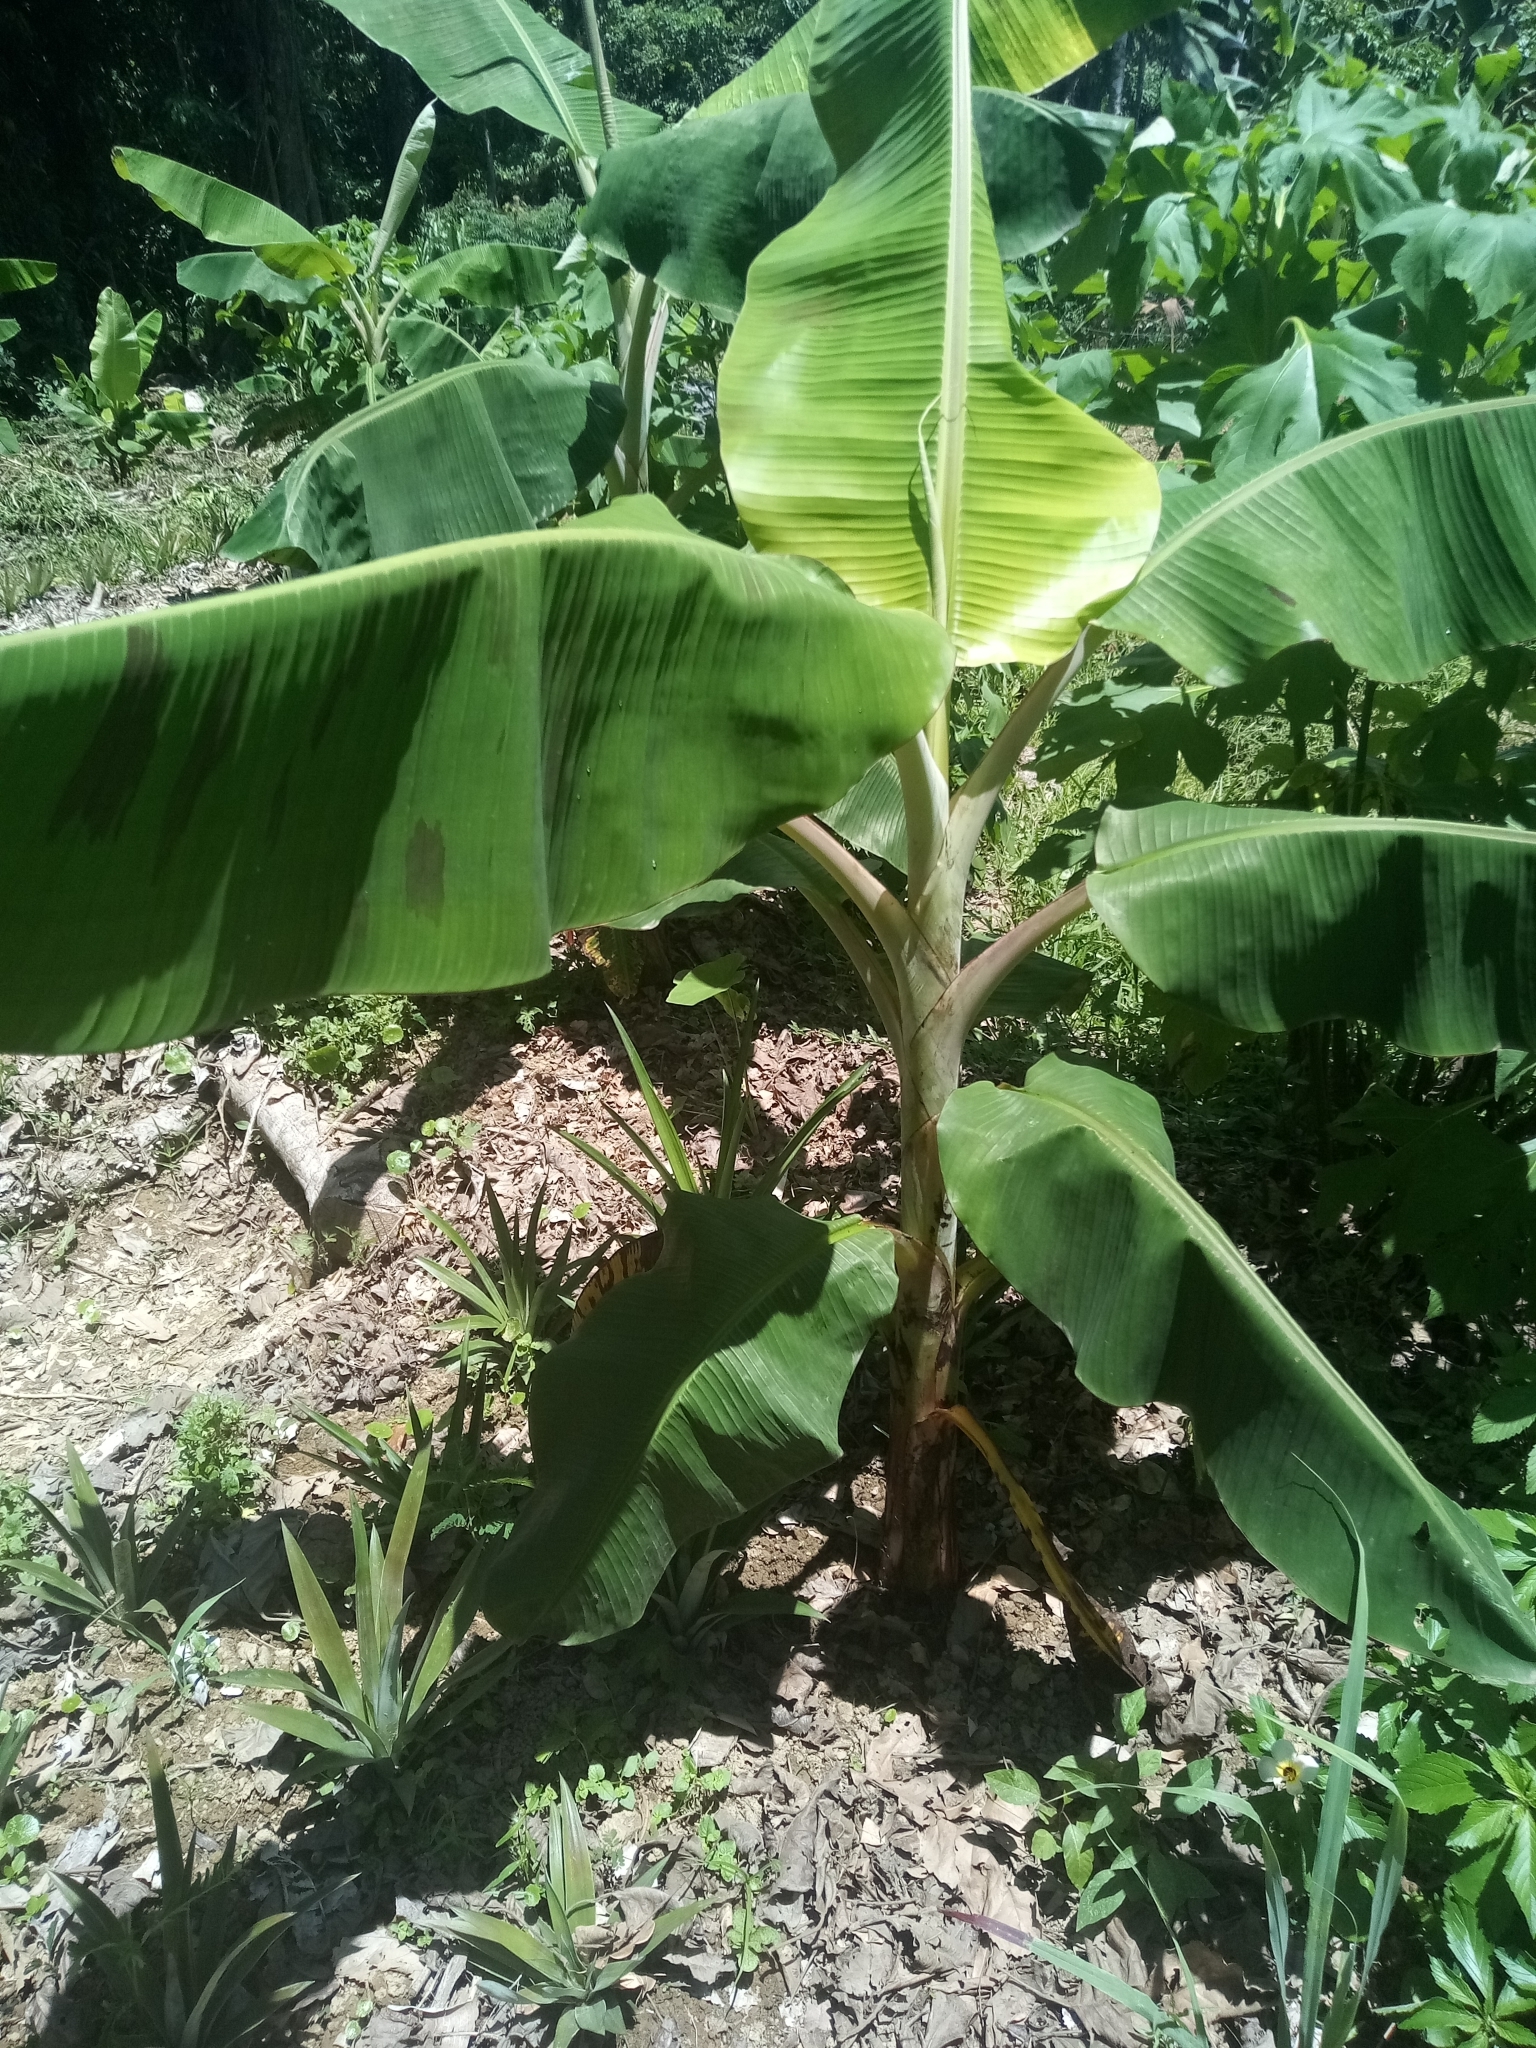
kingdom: Plantae
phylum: Tracheophyta
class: Liliopsida
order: Zingiberales
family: Musaceae
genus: Musa
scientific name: Musa paradisiaca
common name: French plantain
